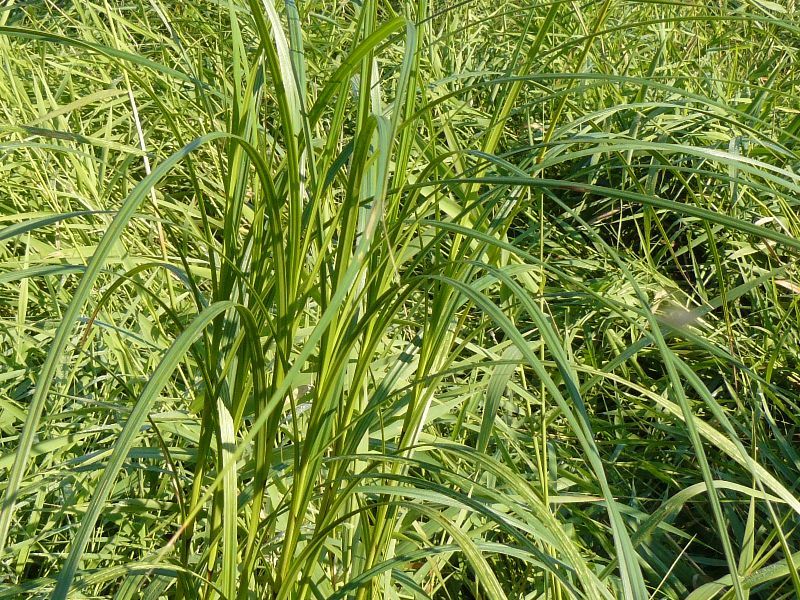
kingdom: Plantae
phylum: Tracheophyta
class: Liliopsida
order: Poales
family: Cyperaceae
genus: Carex
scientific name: Carex trichocarpa
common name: Hairy-fruited lake sedge
